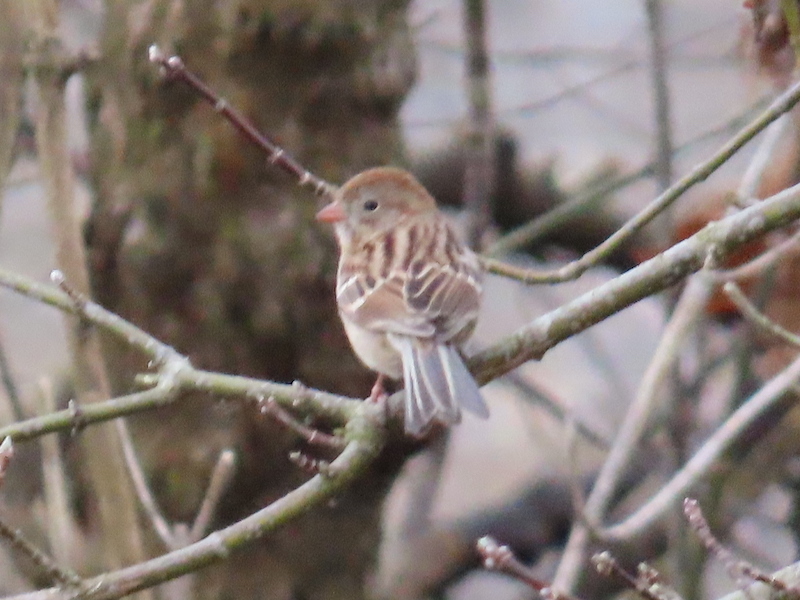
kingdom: Animalia
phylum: Chordata
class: Aves
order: Passeriformes
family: Passerellidae
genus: Spizella
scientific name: Spizella pusilla
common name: Field sparrow
